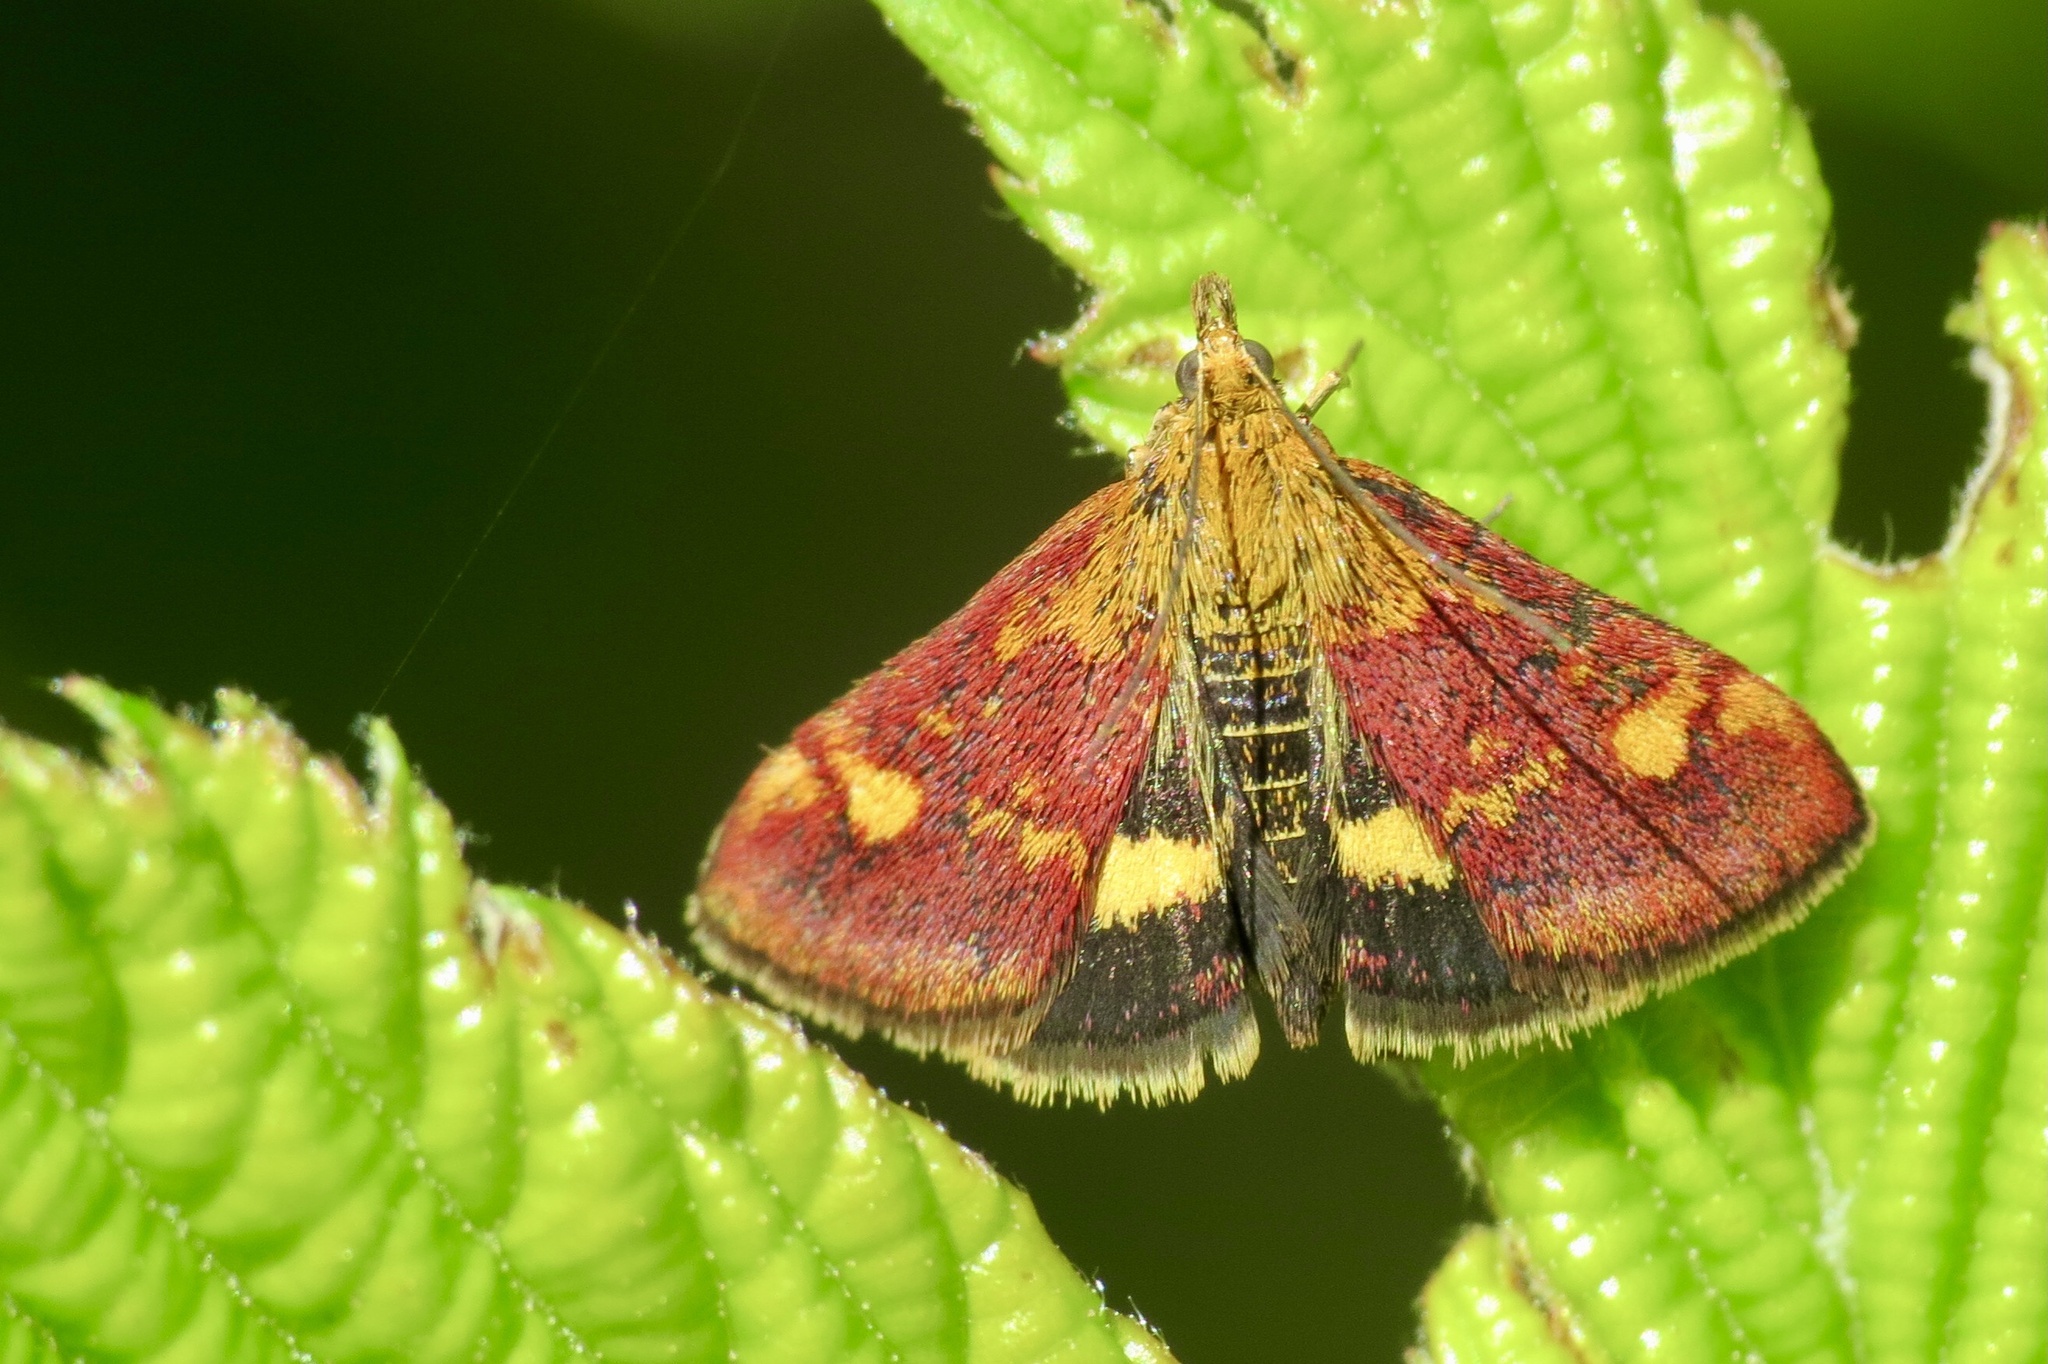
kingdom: Animalia
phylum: Arthropoda
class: Insecta
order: Lepidoptera
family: Crambidae
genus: Pyrausta
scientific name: Pyrausta aurata
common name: Small purple & gold
